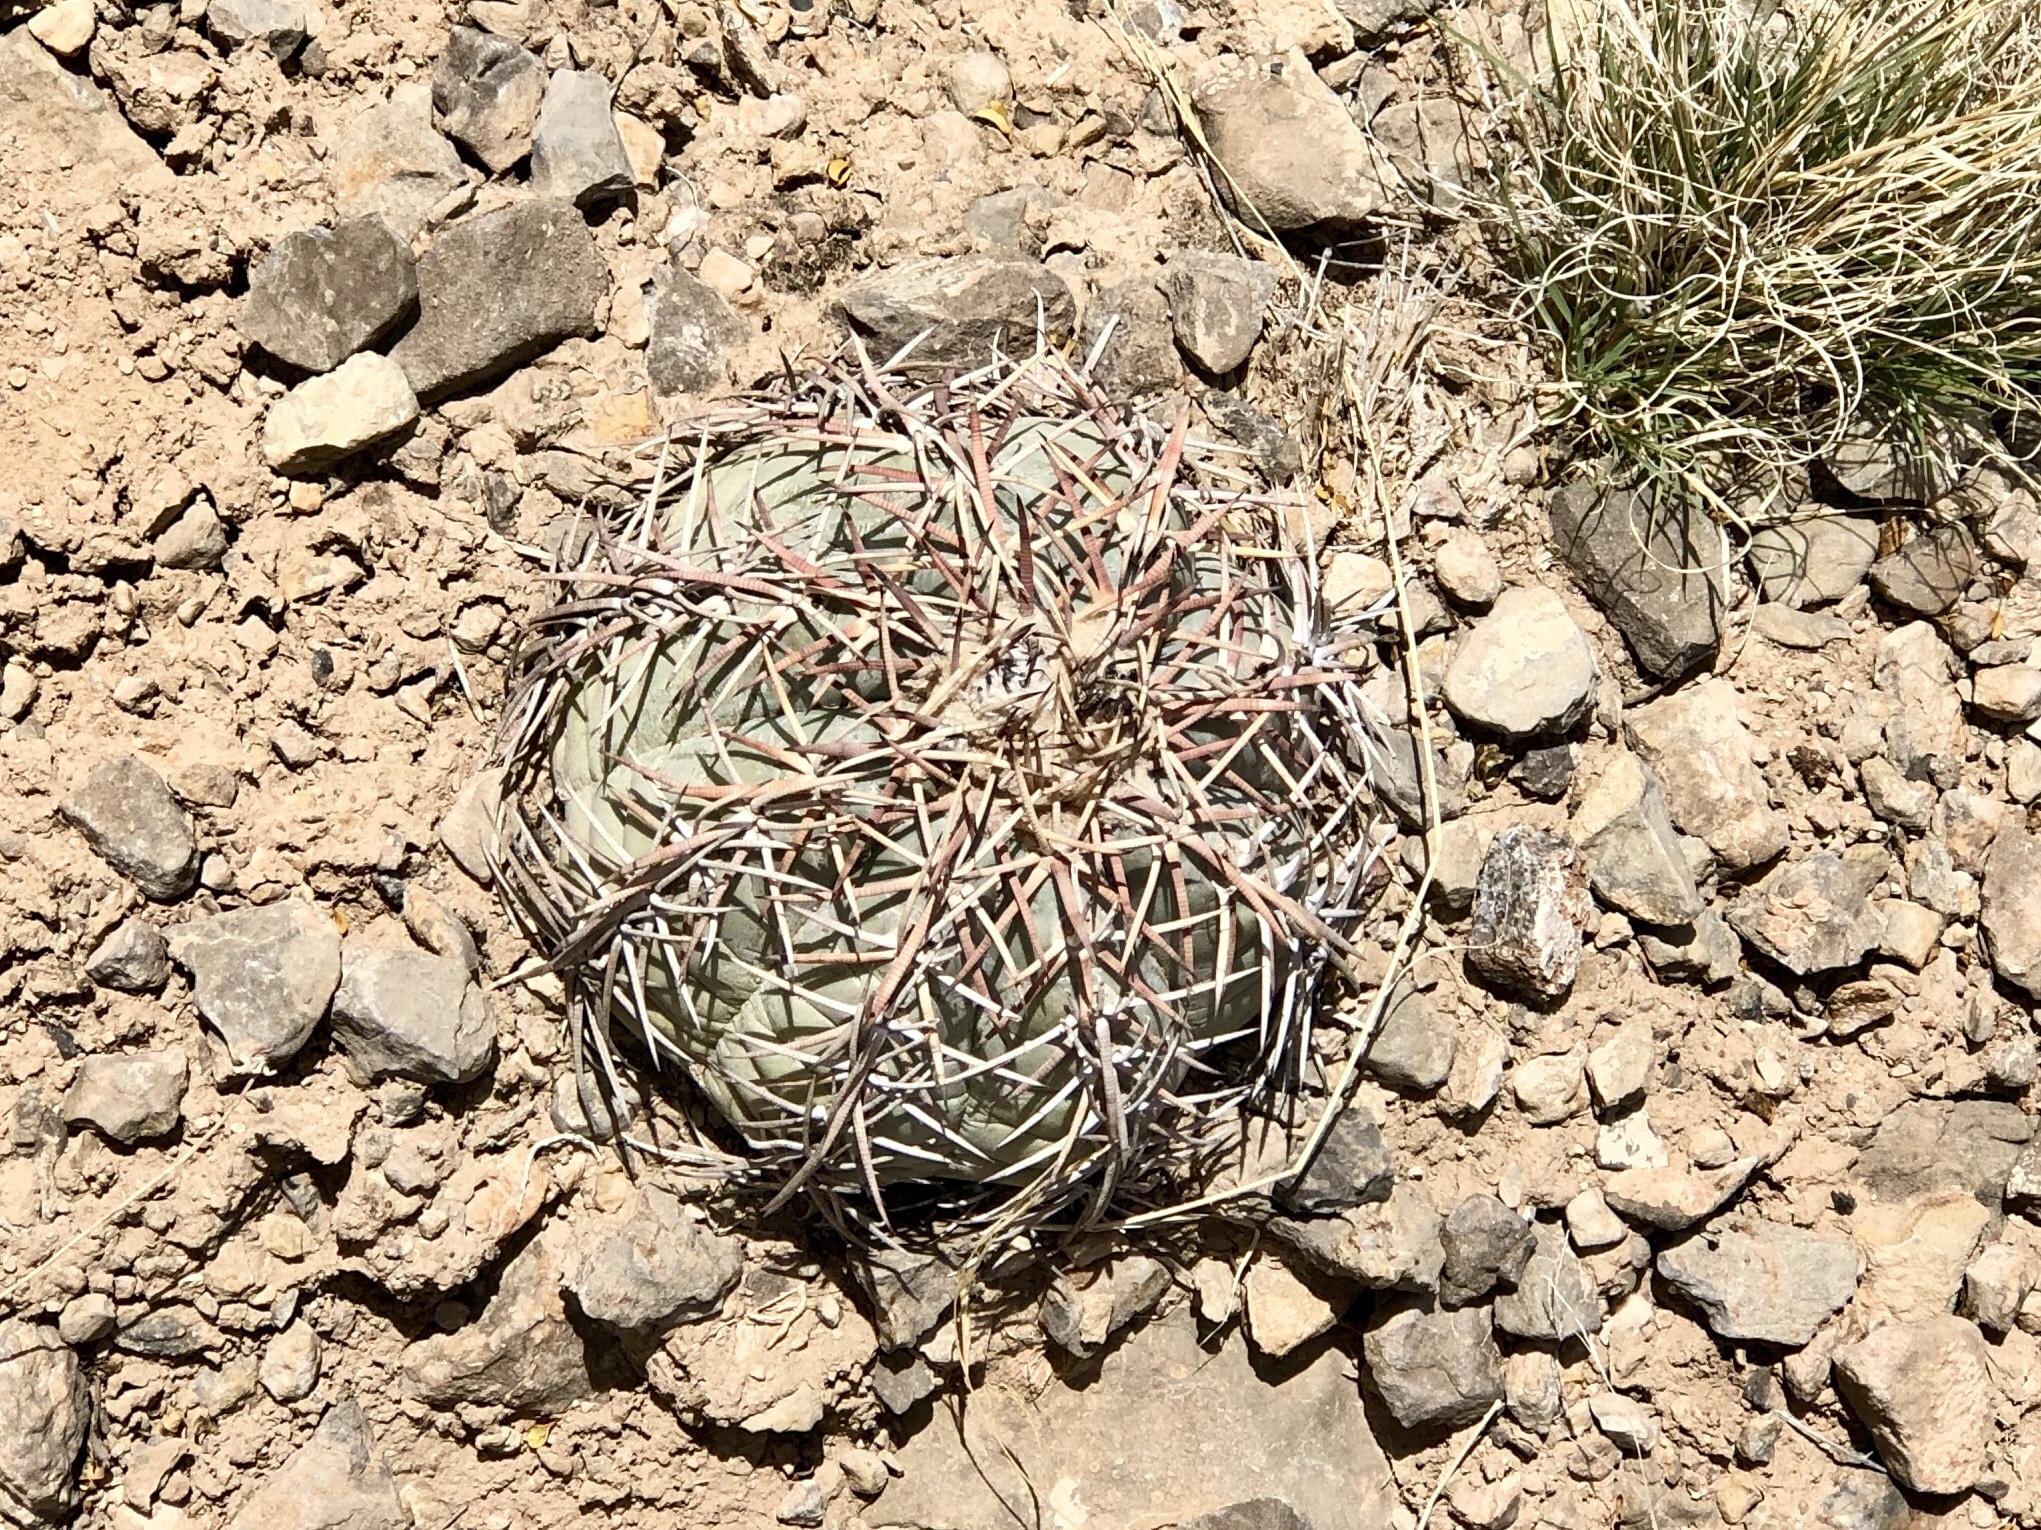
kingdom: Plantae
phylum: Tracheophyta
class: Magnoliopsida
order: Caryophyllales
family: Cactaceae
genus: Echinocactus
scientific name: Echinocactus horizonthalonius
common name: Devilshead
